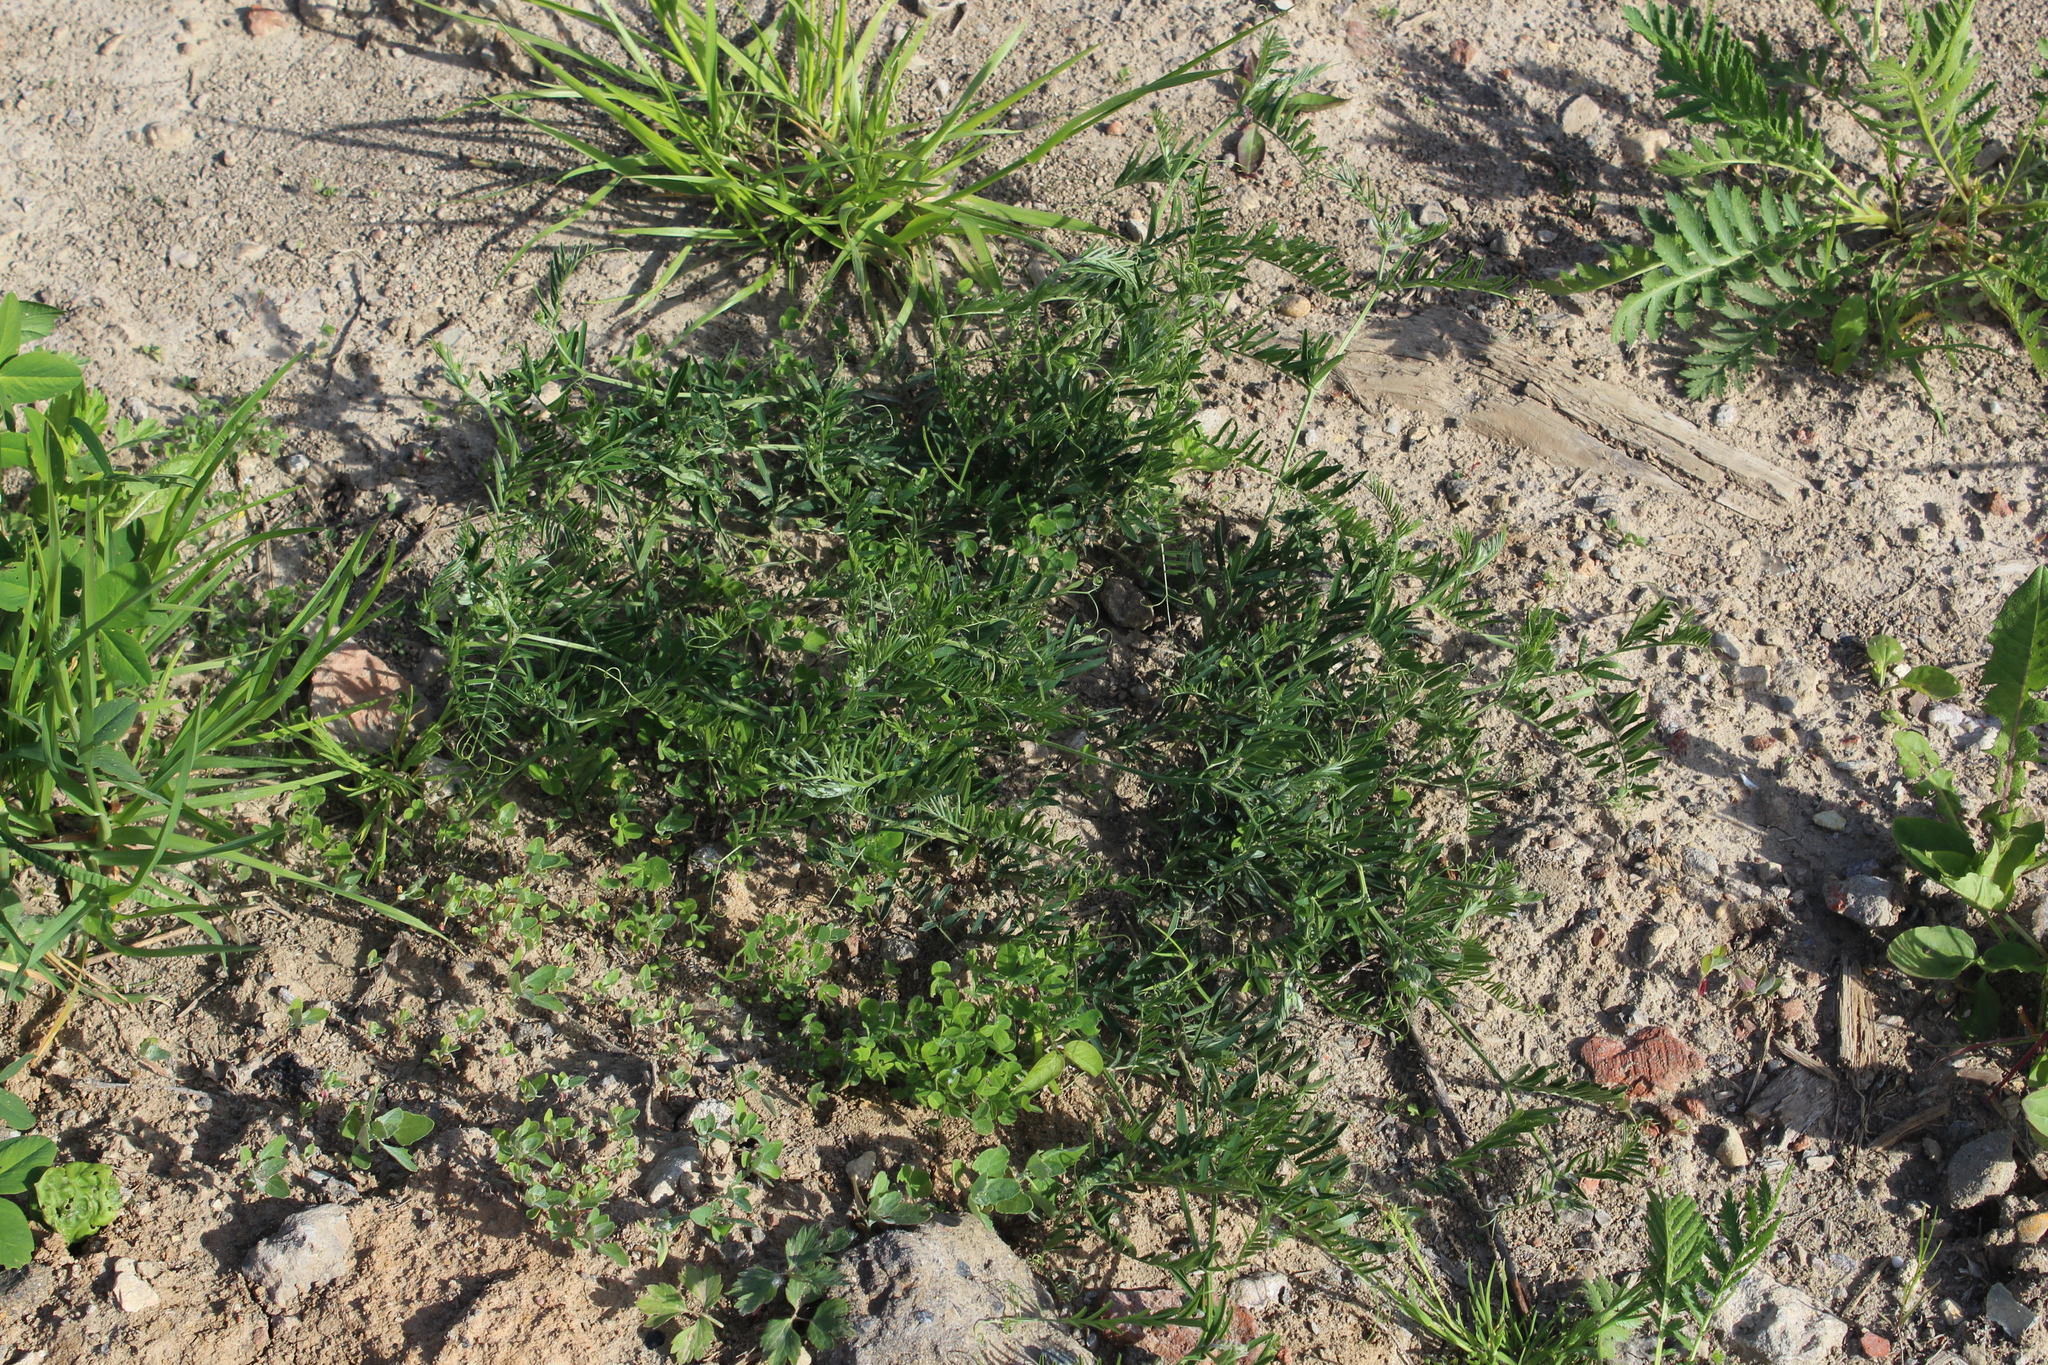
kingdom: Plantae
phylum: Tracheophyta
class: Magnoliopsida
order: Fabales
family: Fabaceae
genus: Vicia
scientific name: Vicia cracca
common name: Bird vetch
